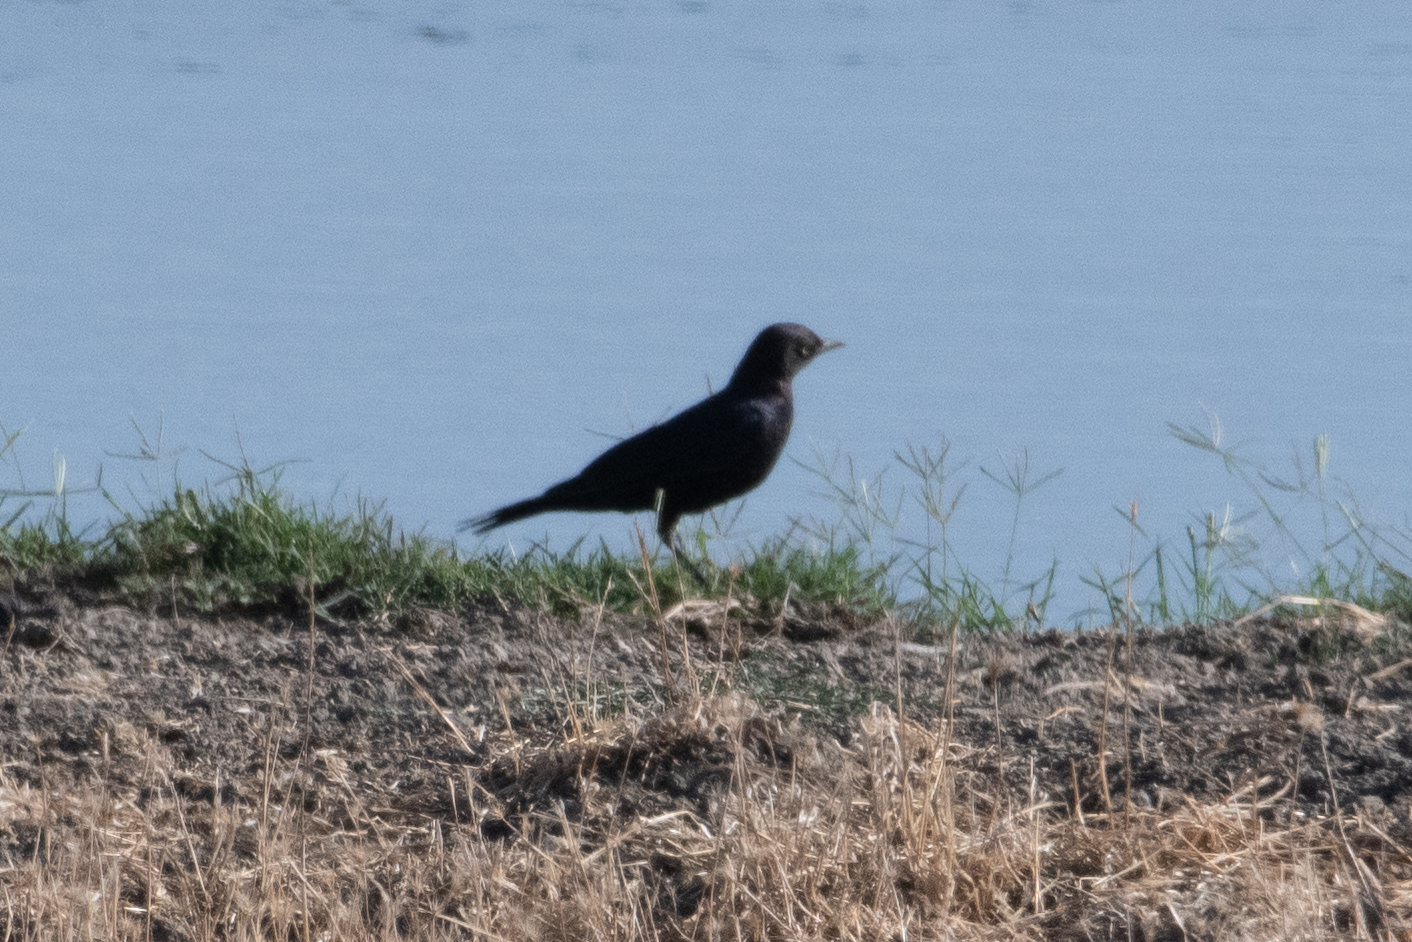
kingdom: Animalia
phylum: Chordata
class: Aves
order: Passeriformes
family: Icteridae
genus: Euphagus
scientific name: Euphagus cyanocephalus
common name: Brewer's blackbird
